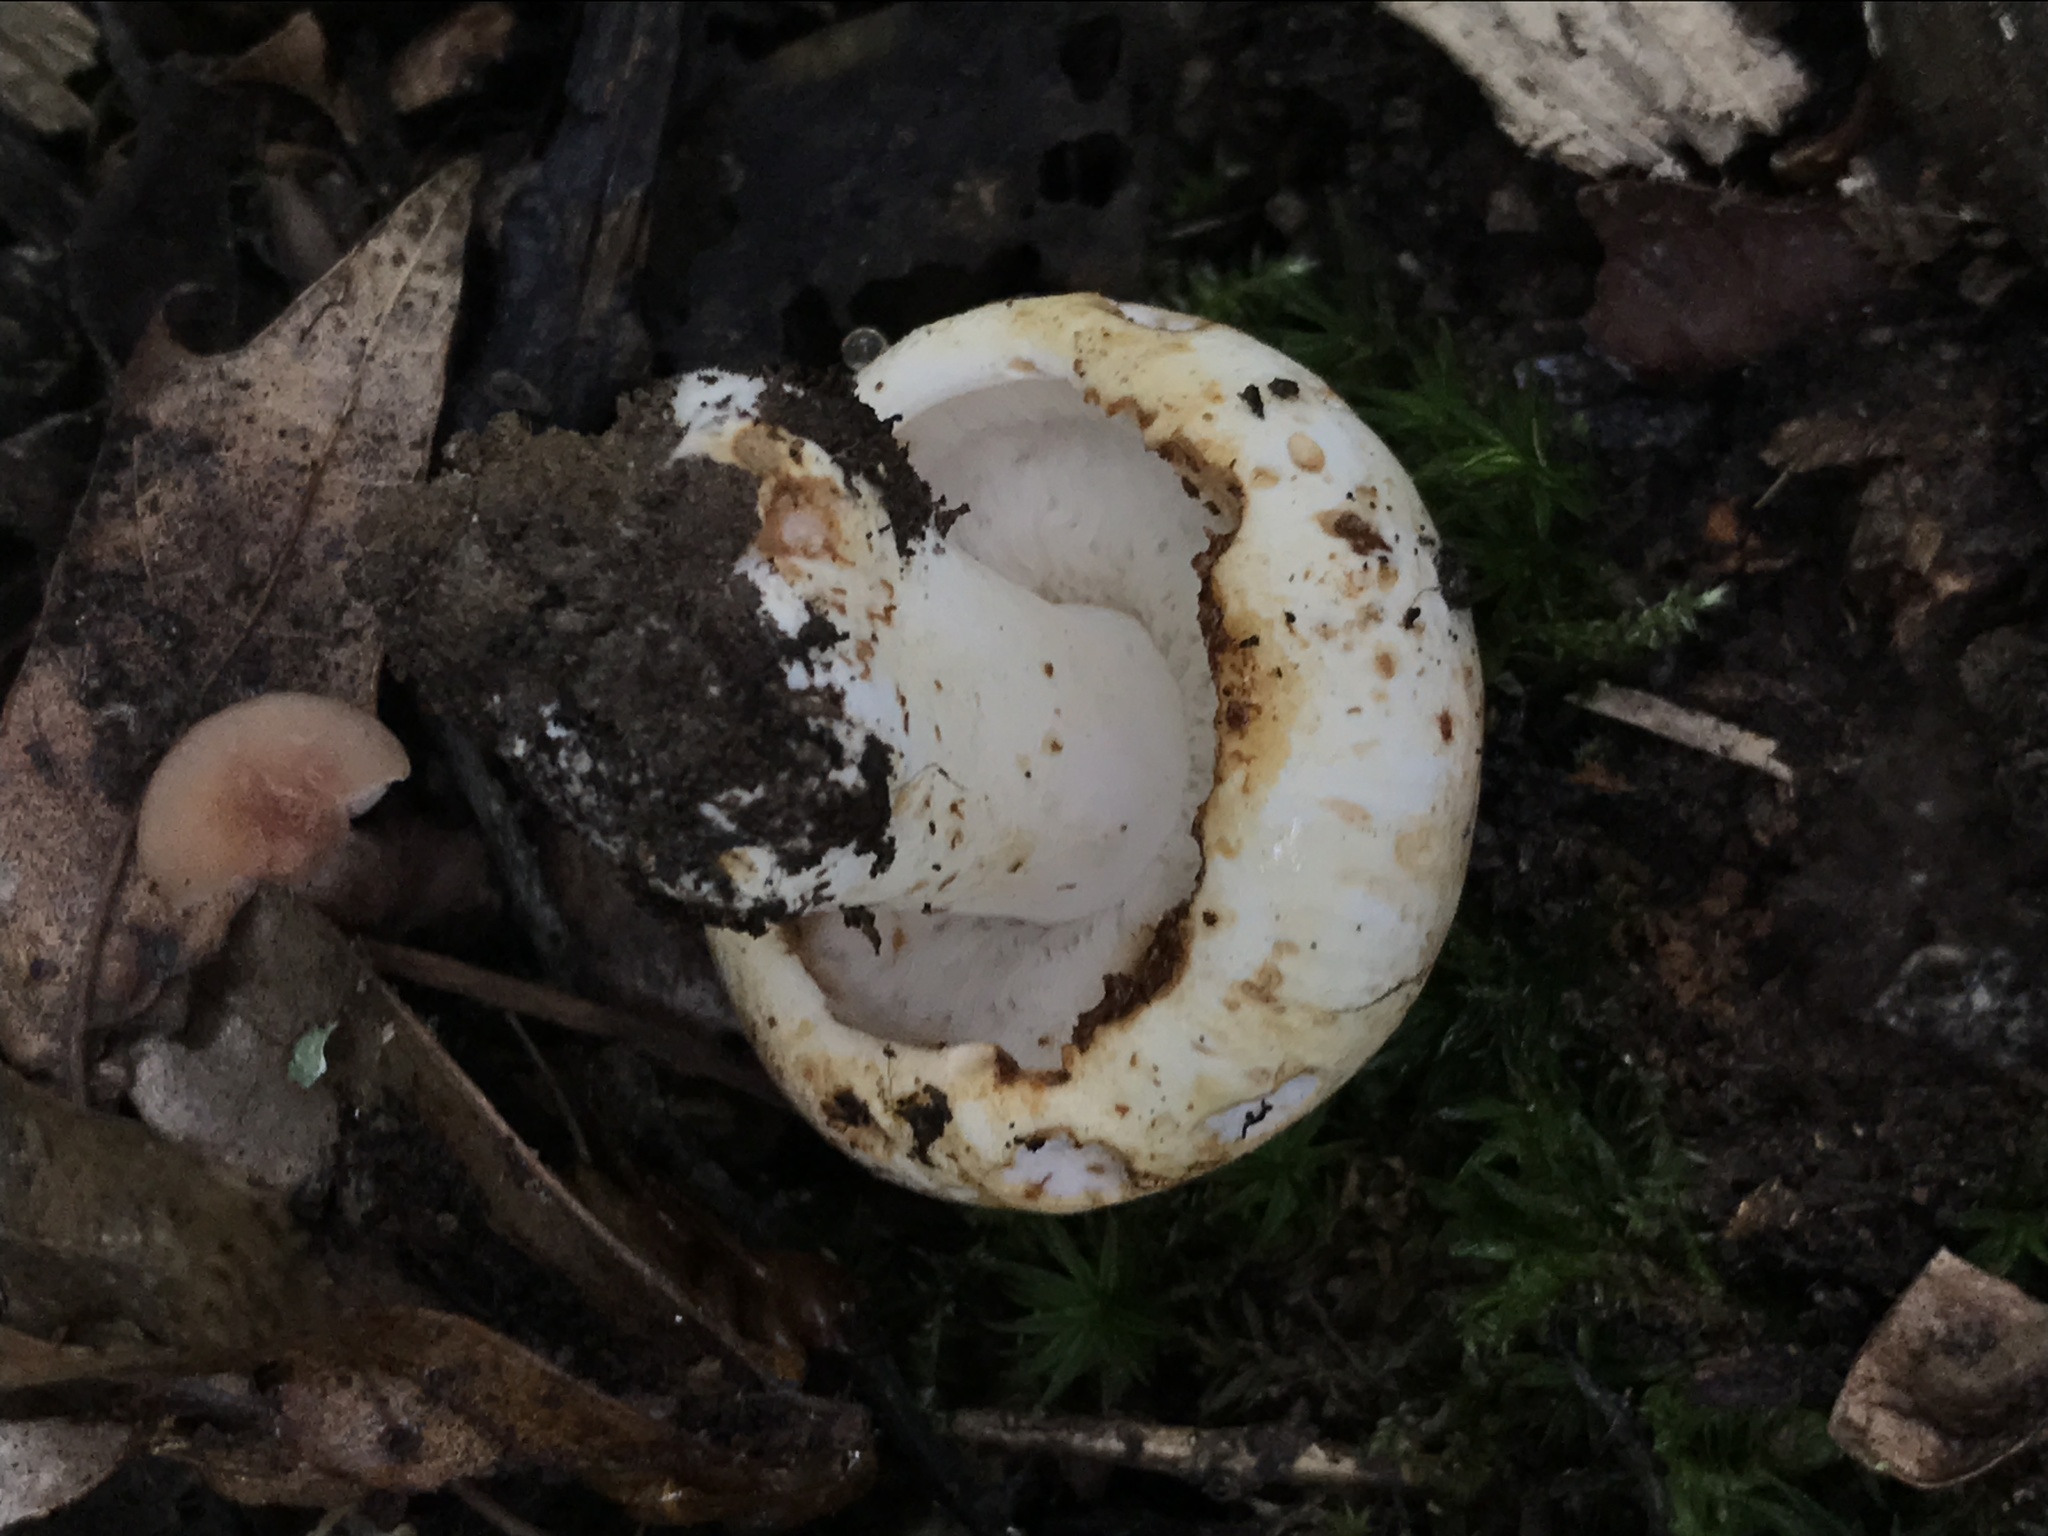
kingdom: Fungi
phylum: Basidiomycota
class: Agaricomycetes
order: Russulales
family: Russulaceae
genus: Russula
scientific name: Russula compacta
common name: Fishbiscuit russula
